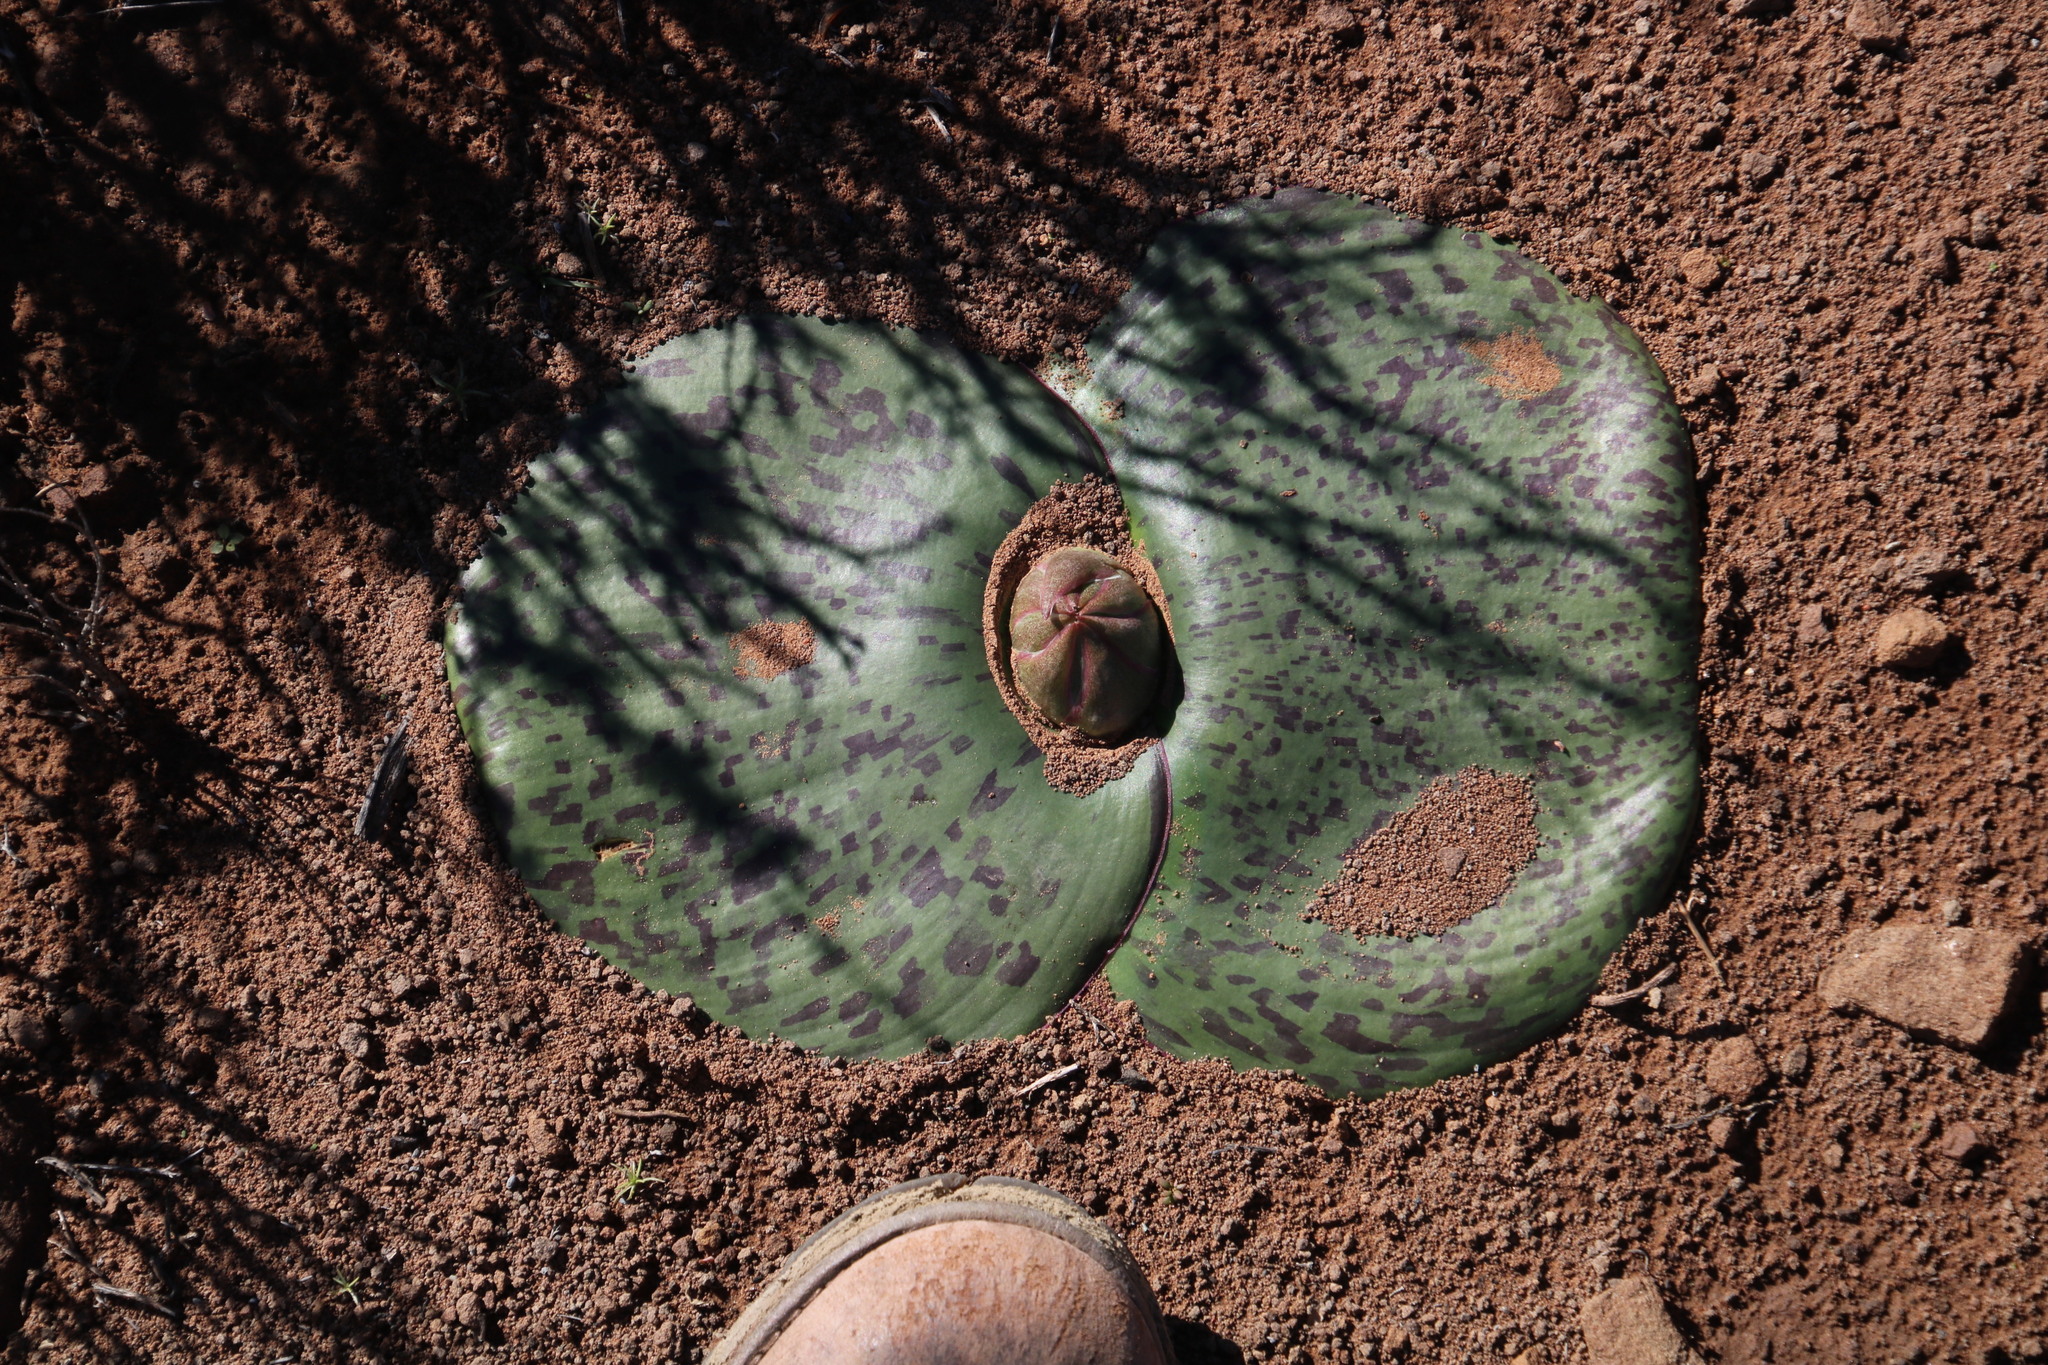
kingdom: Plantae
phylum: Tracheophyta
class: Liliopsida
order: Asparagales
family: Asparagaceae
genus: Massonia
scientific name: Massonia depressa
